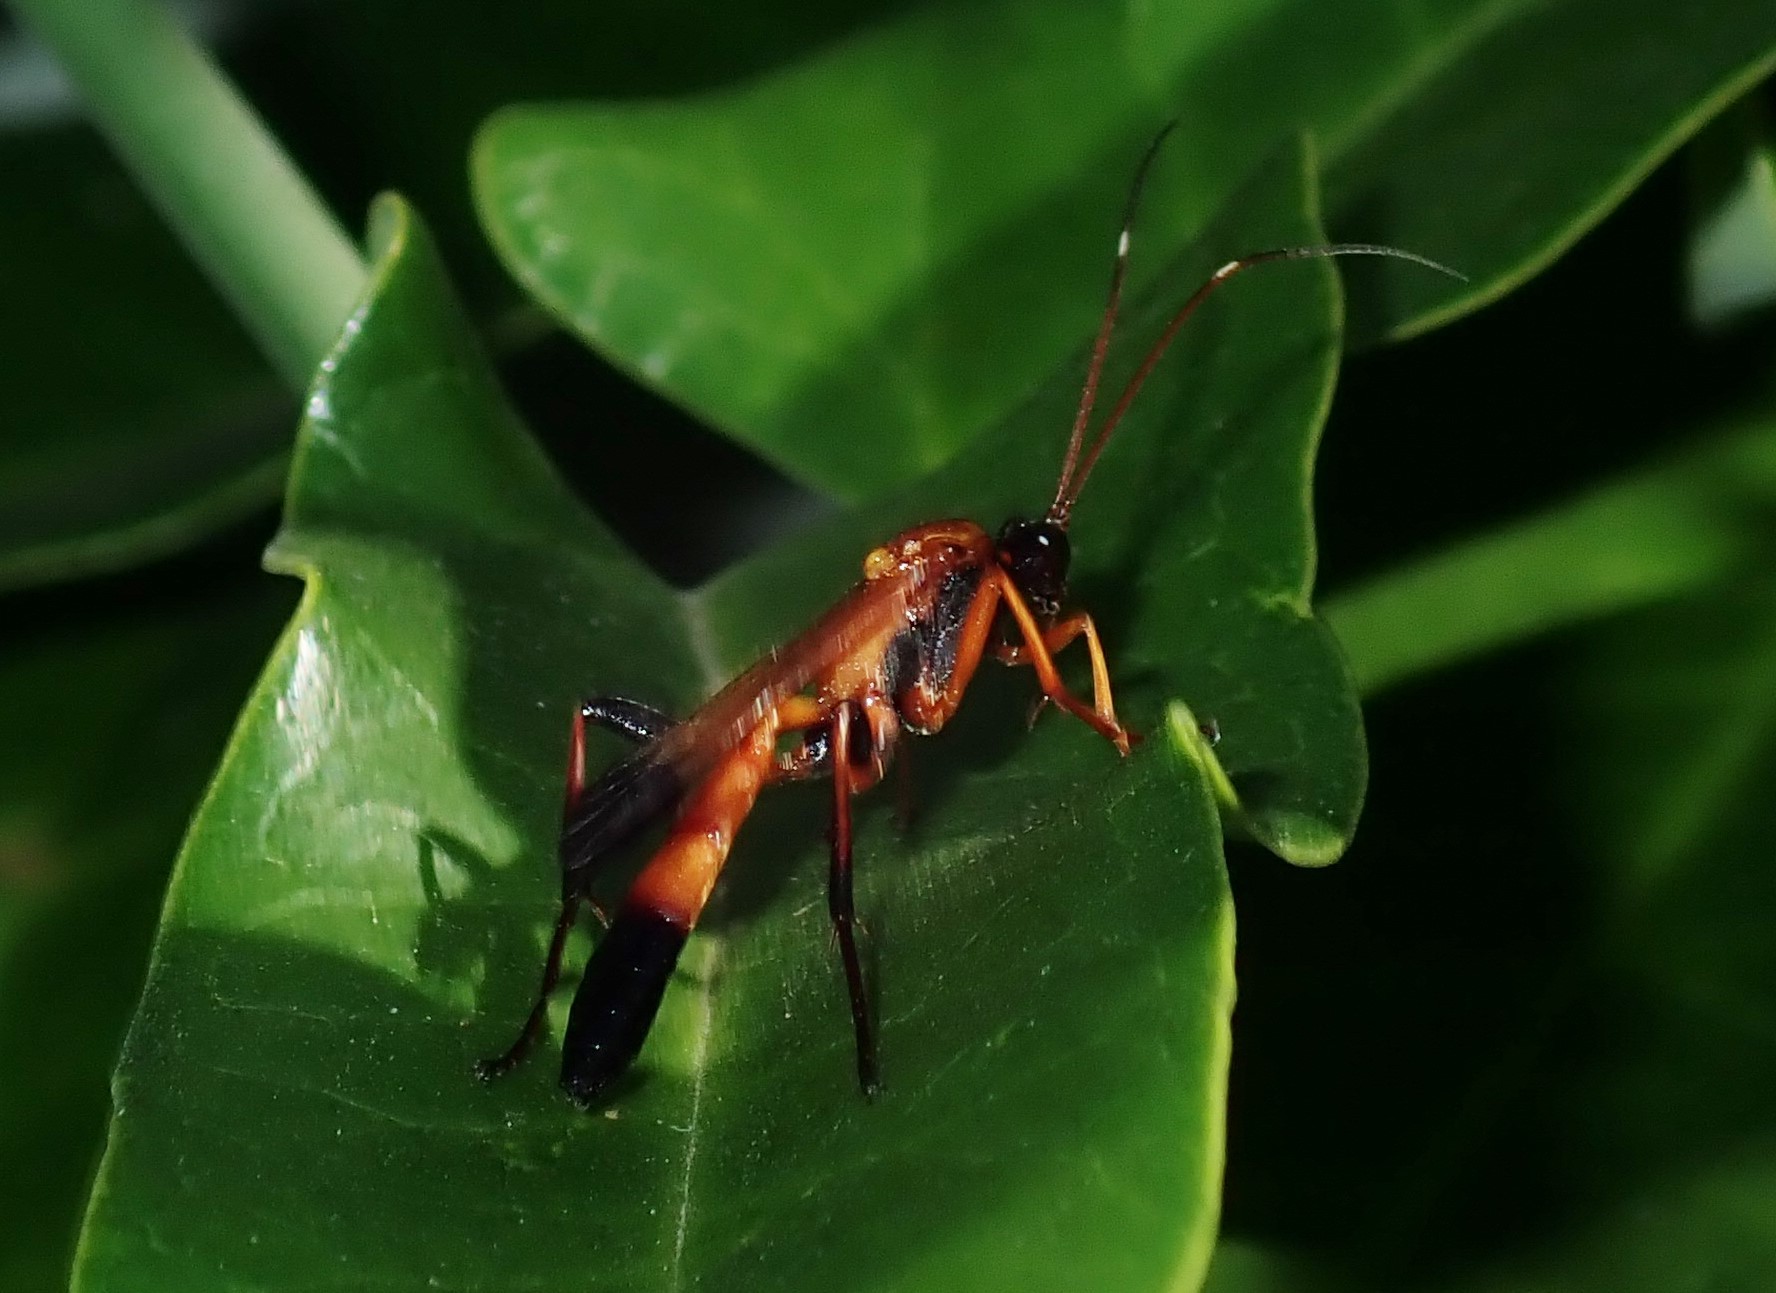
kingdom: Animalia
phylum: Arthropoda
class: Insecta
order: Hymenoptera
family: Ichneumonidae
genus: Ctenochares
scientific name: Ctenochares bicolorus
